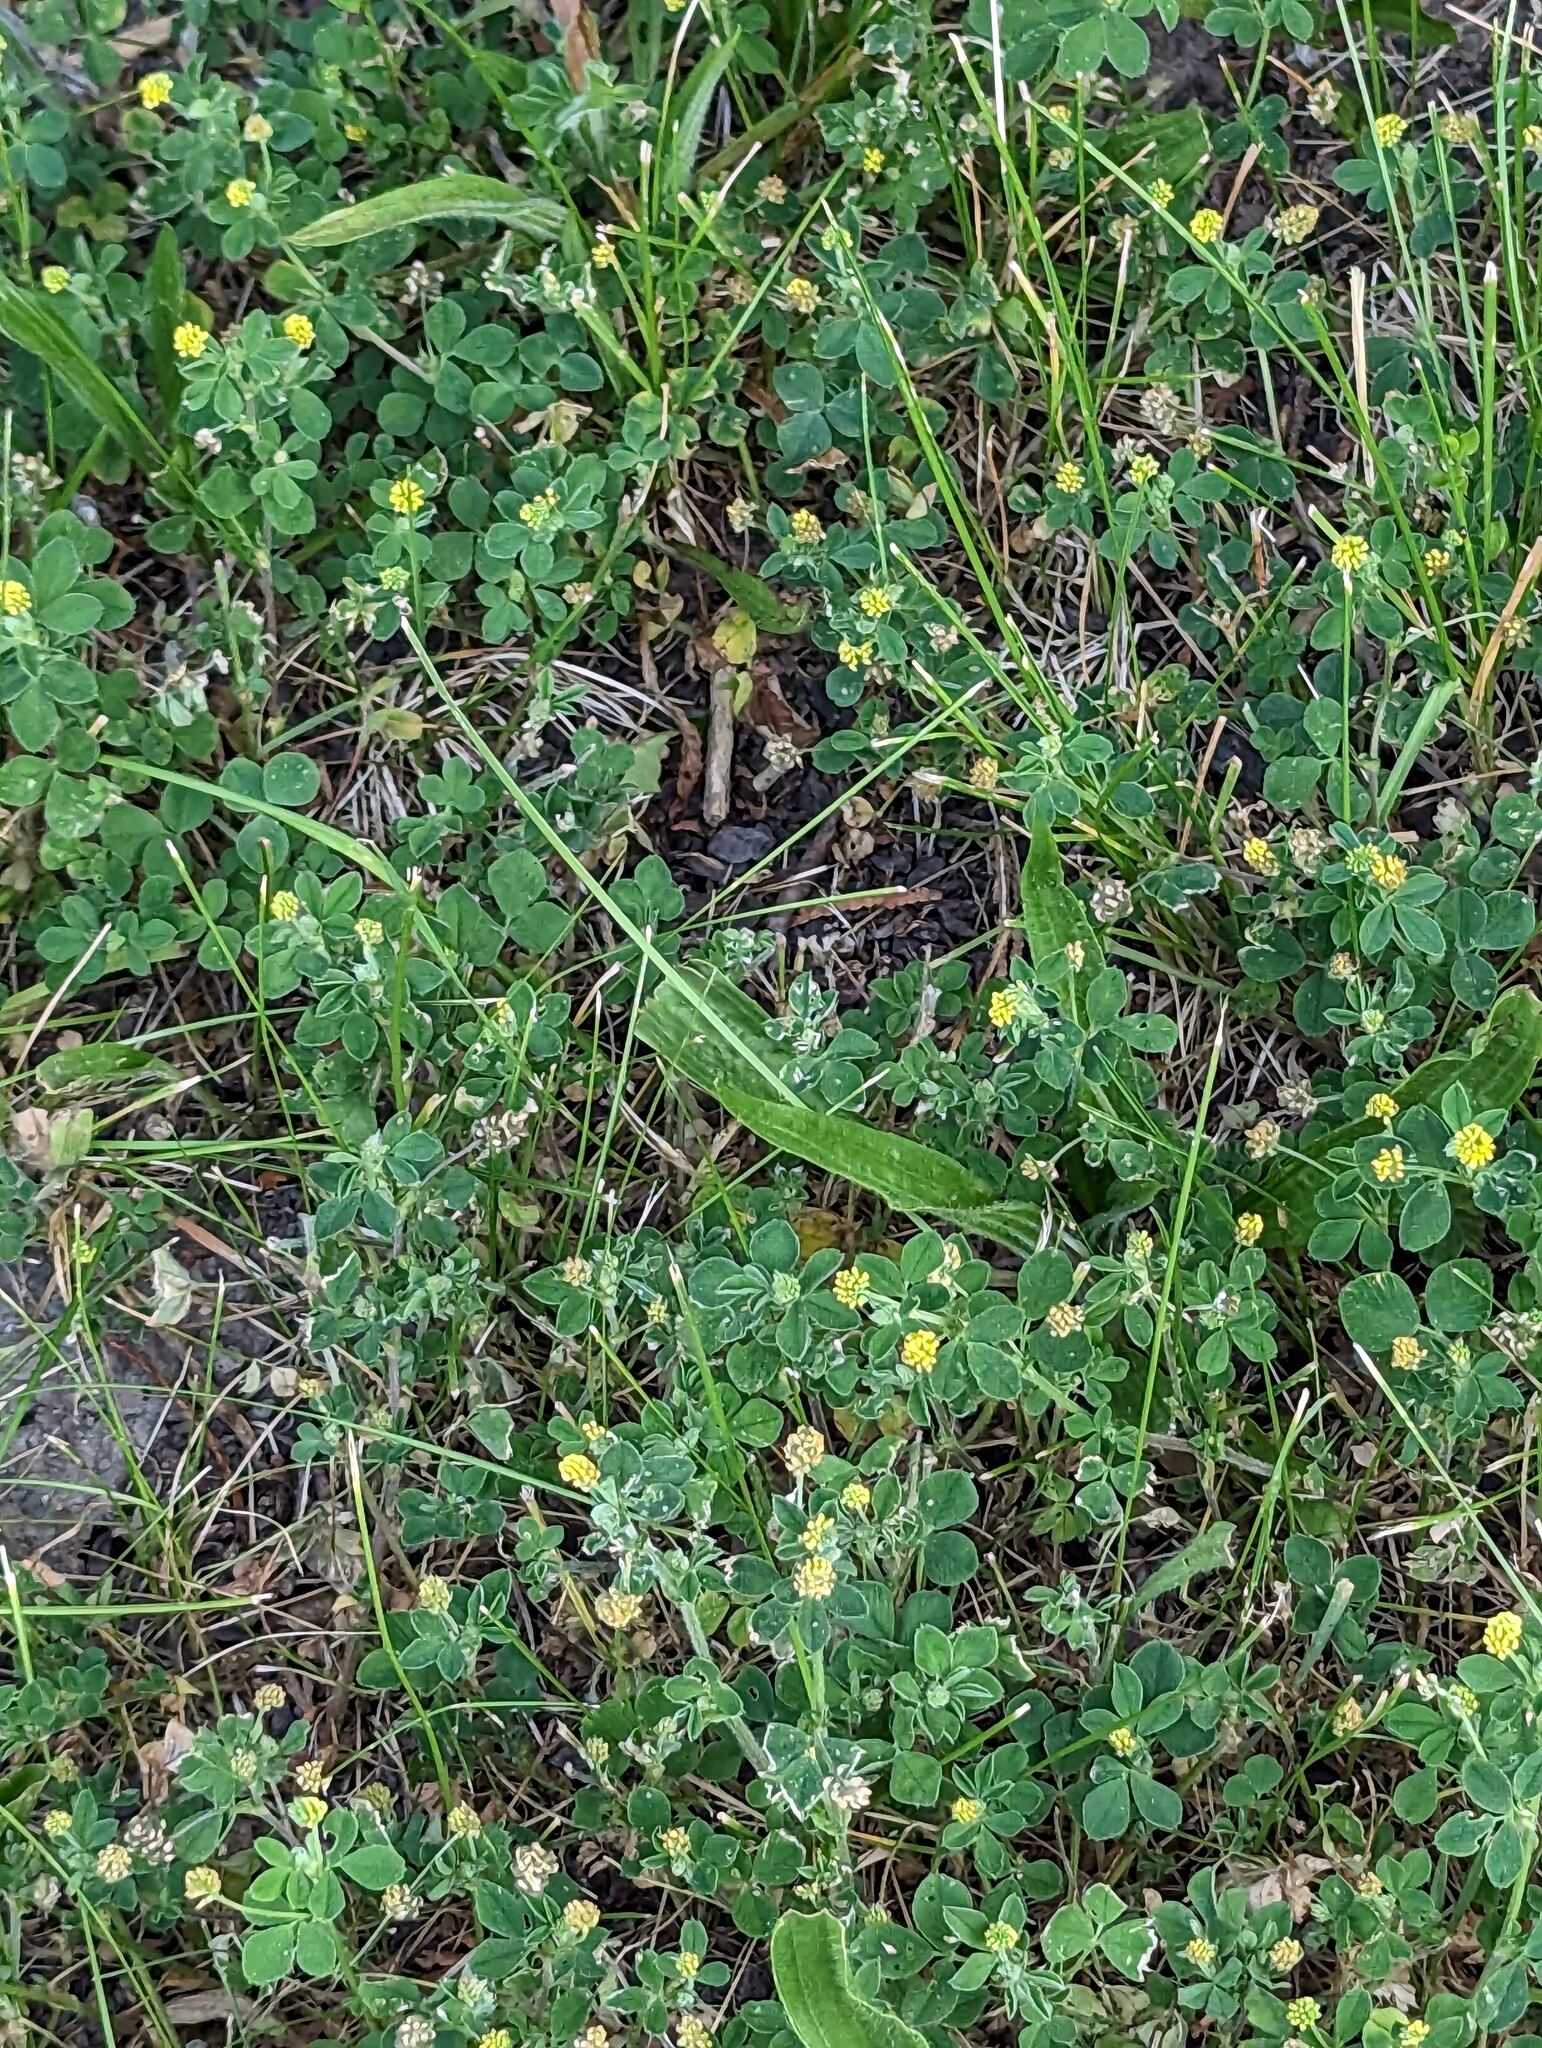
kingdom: Plantae
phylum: Tracheophyta
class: Magnoliopsida
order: Fabales
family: Fabaceae
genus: Medicago
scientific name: Medicago lupulina
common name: Black medick
